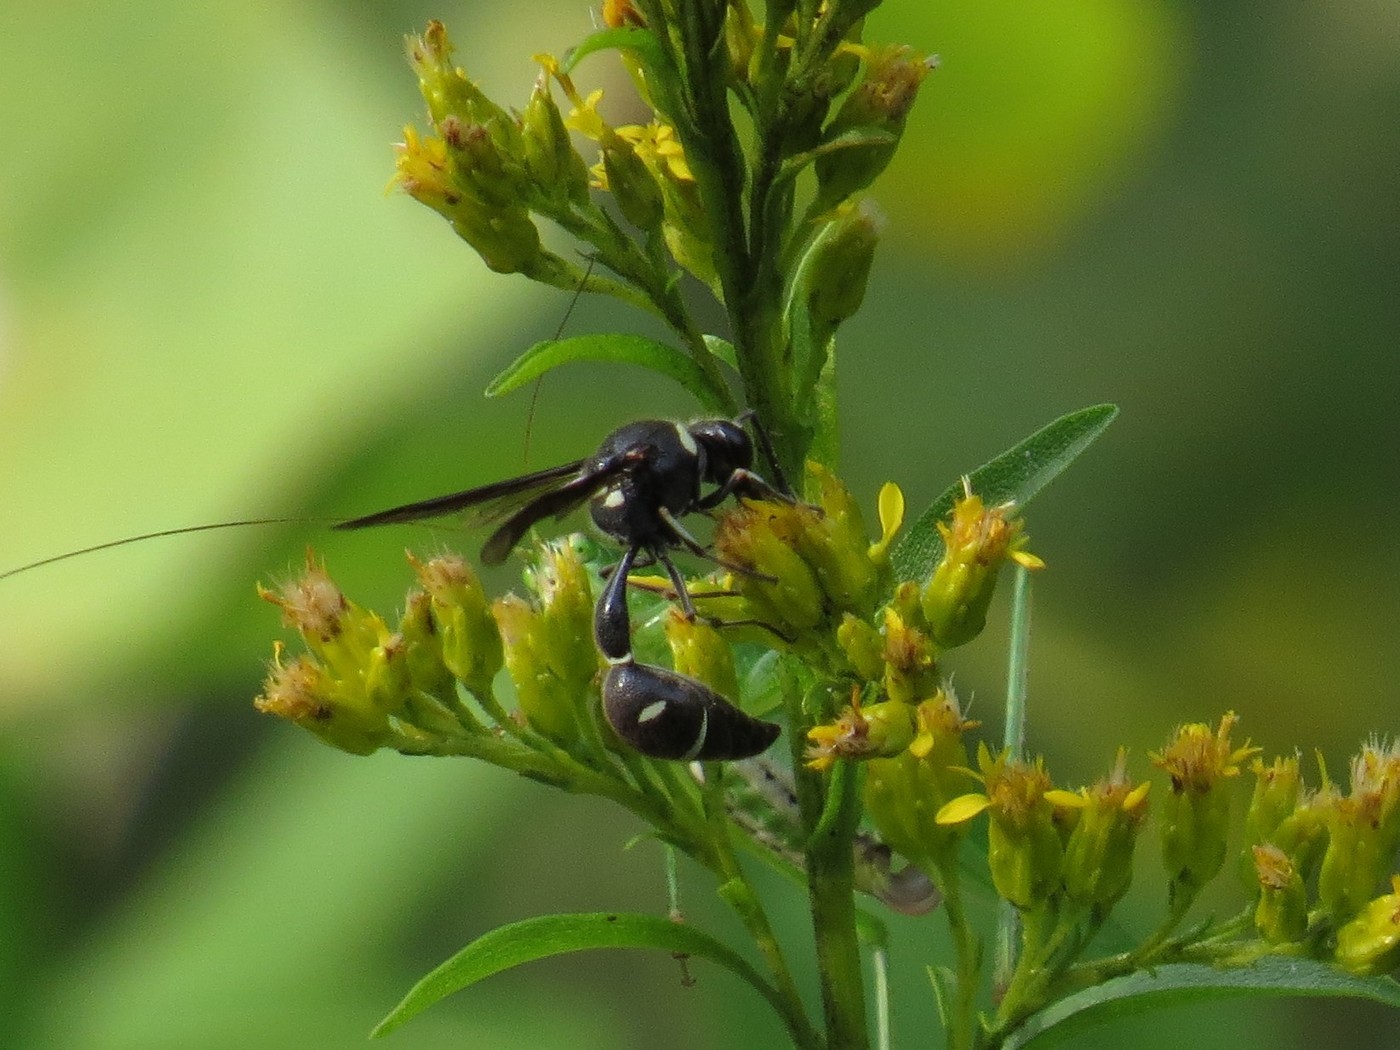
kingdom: Animalia
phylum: Arthropoda
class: Insecta
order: Hymenoptera
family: Vespidae
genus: Eumenes
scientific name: Eumenes fraternus
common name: Fraternal potter wasp
